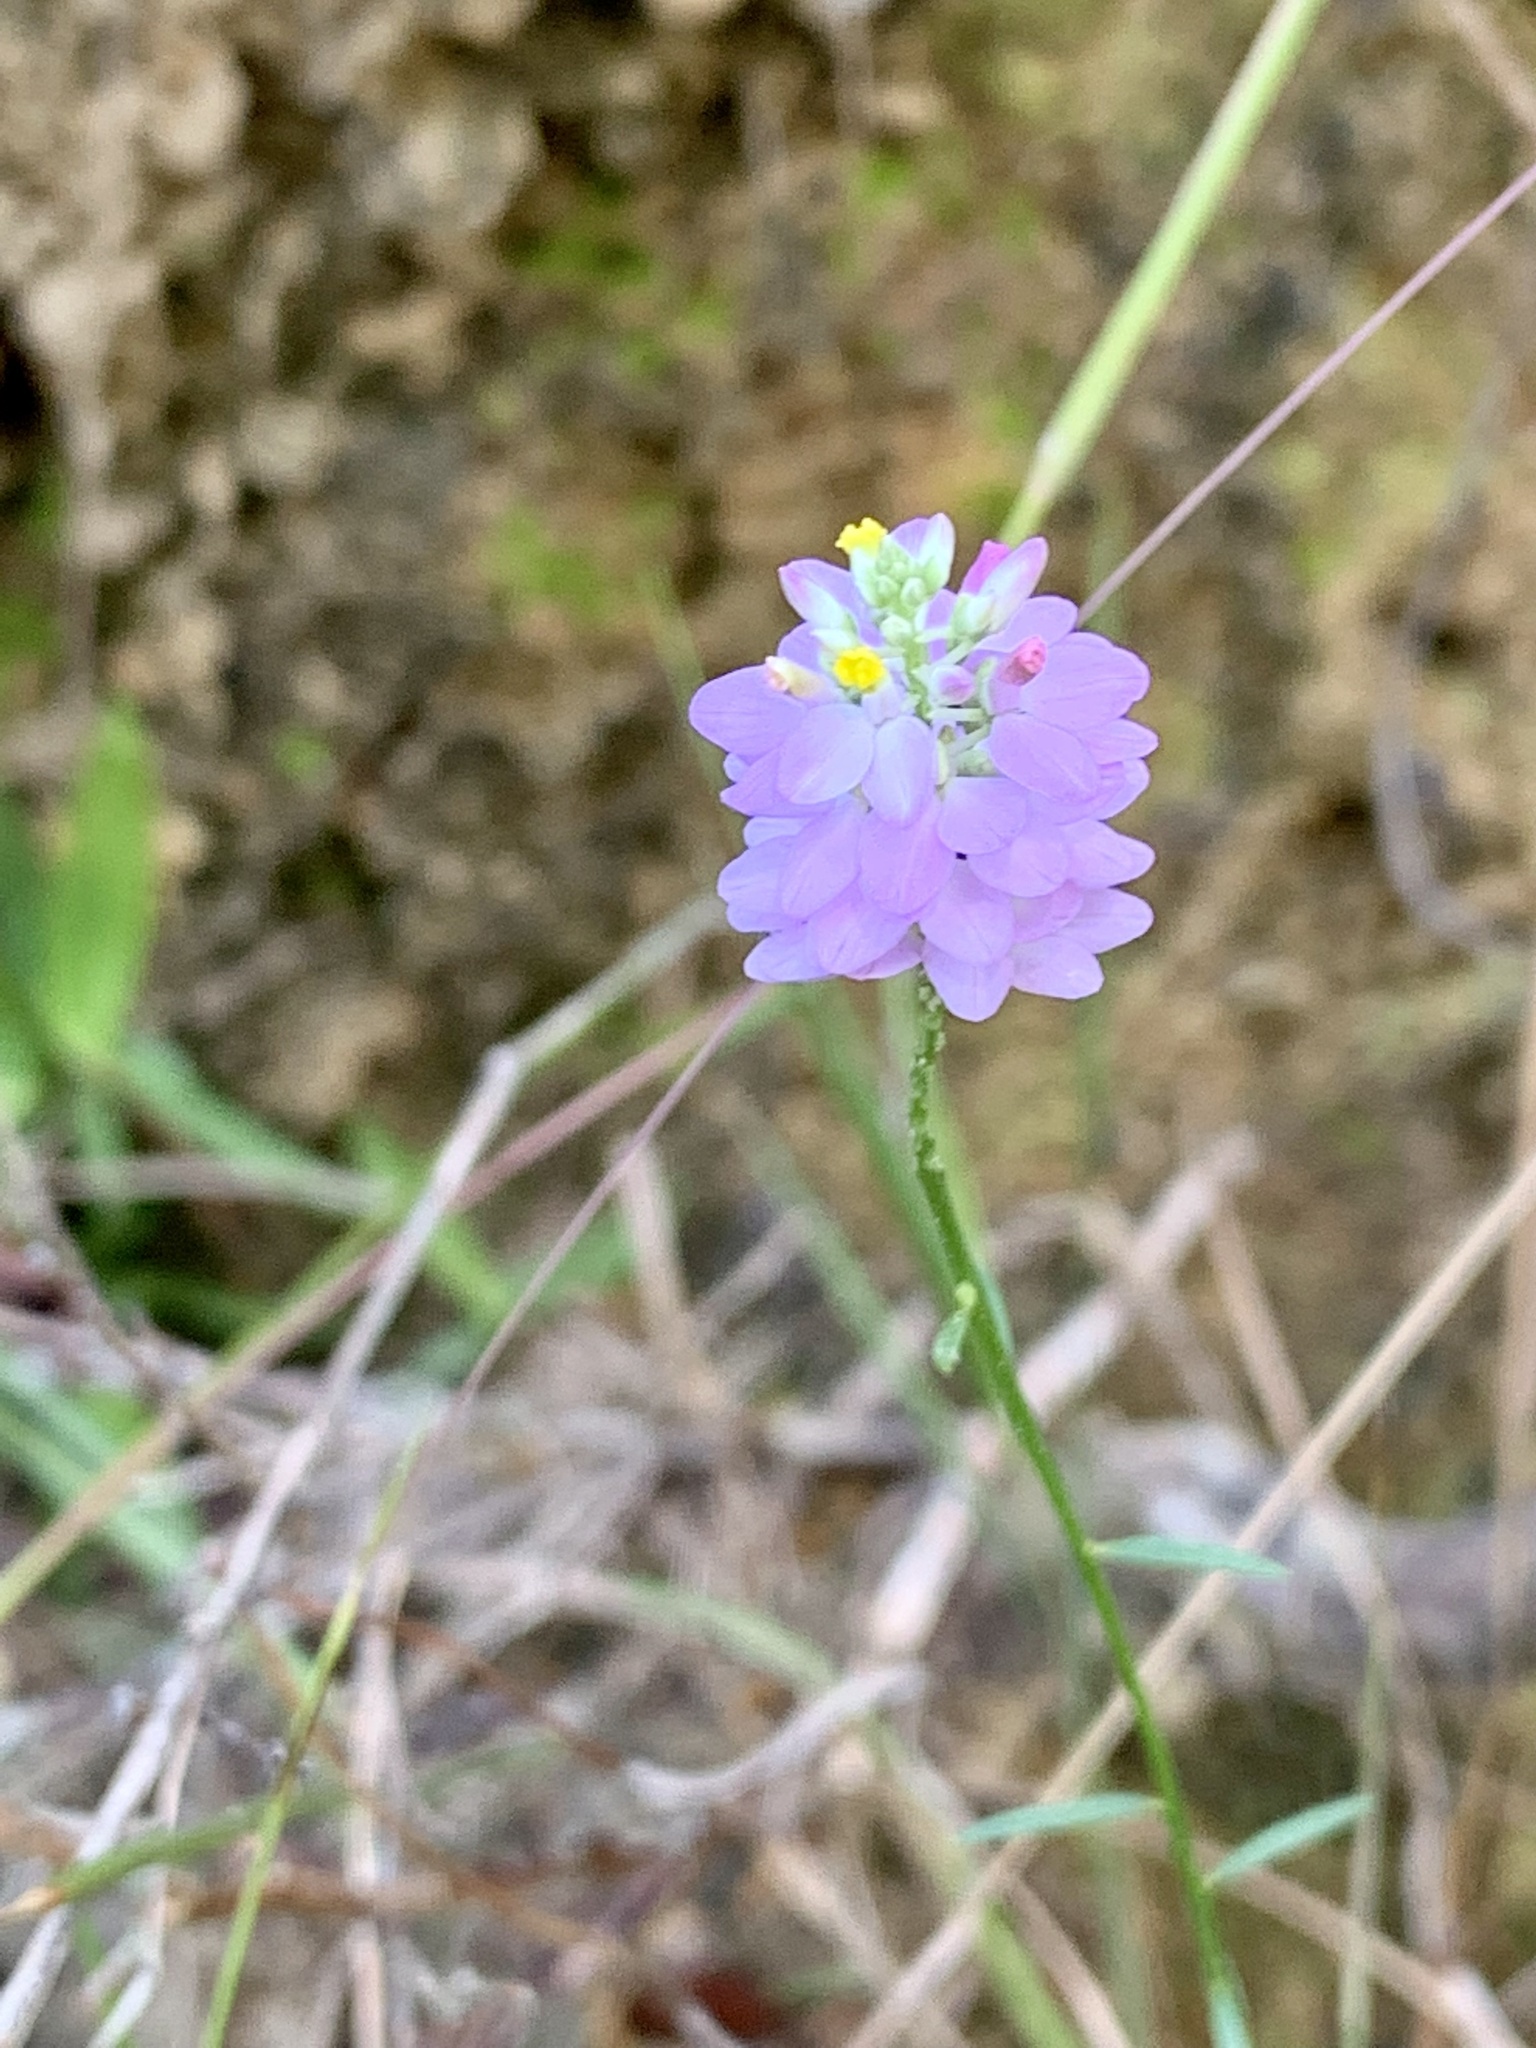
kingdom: Plantae
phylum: Tracheophyta
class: Magnoliopsida
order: Fabales
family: Polygalaceae
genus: Polygala
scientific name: Polygala mariana
